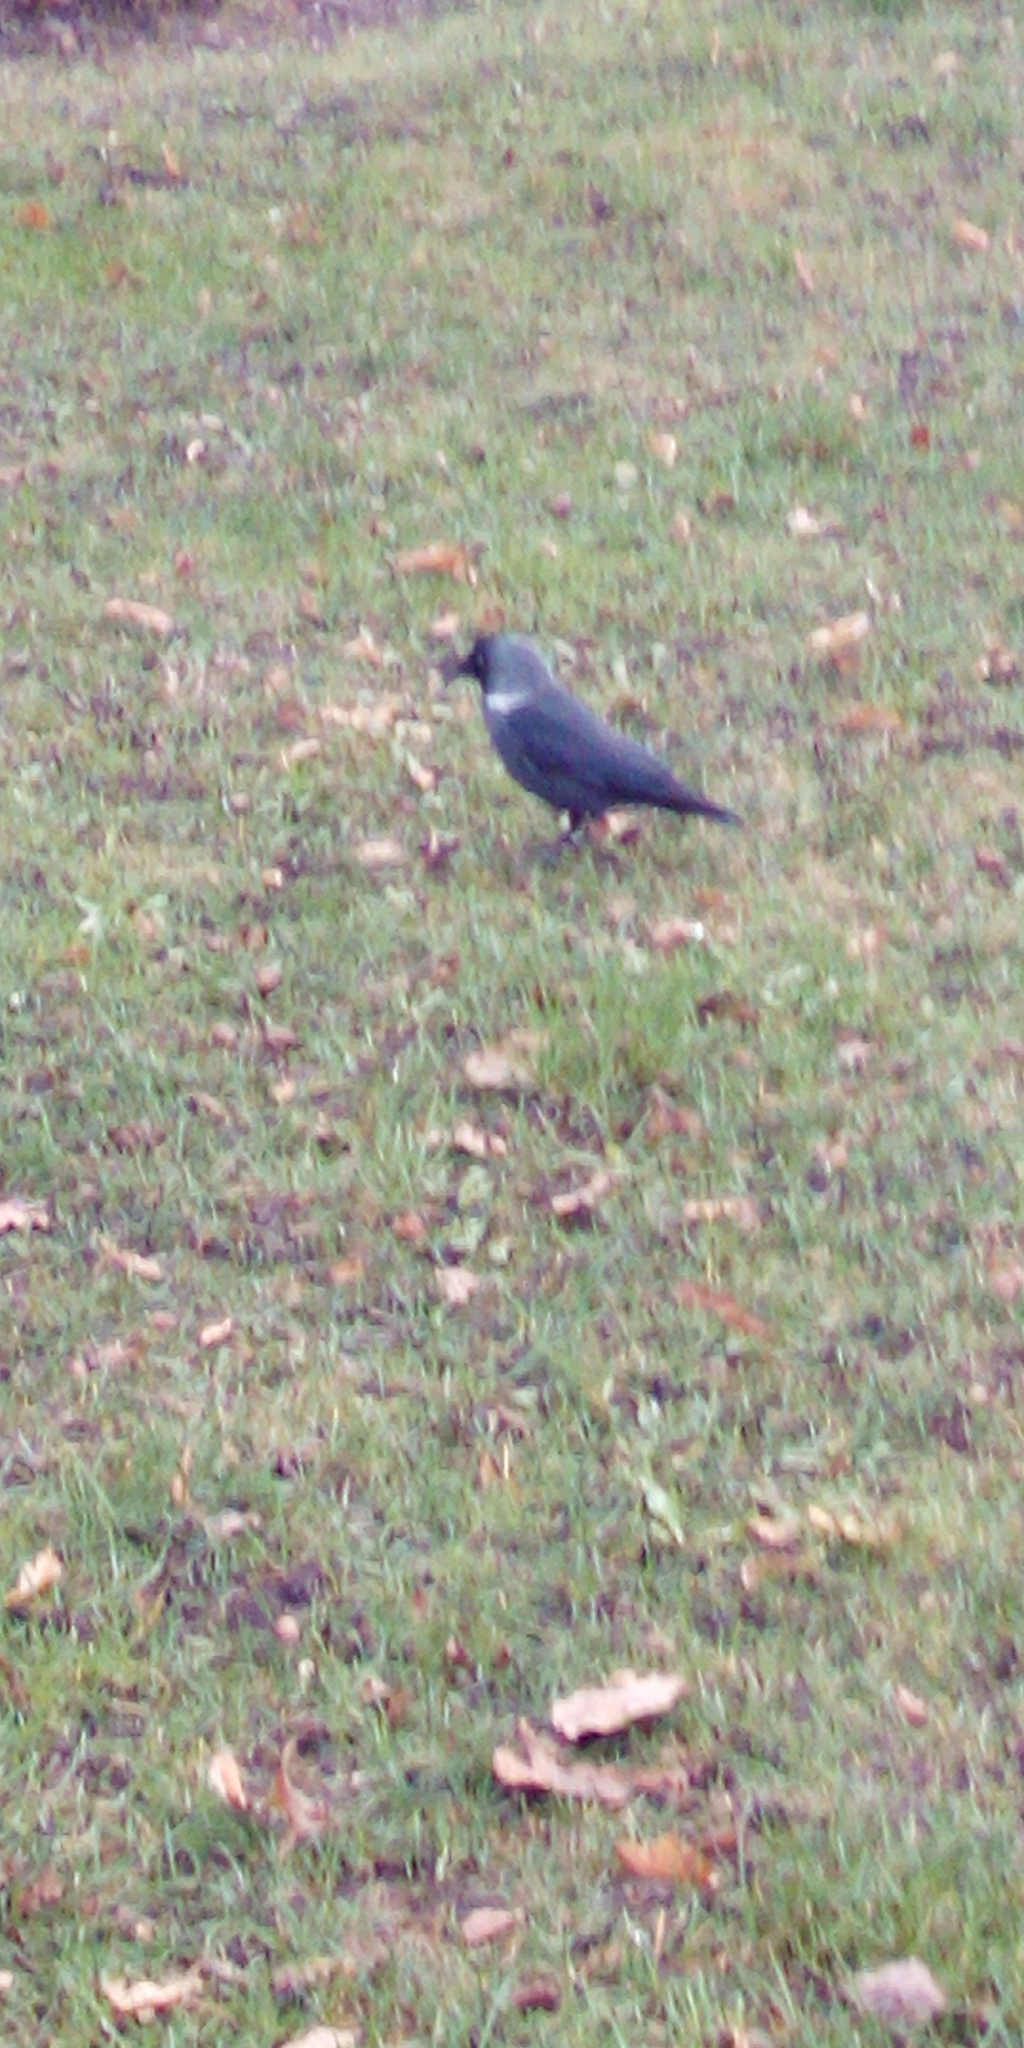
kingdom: Animalia
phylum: Chordata
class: Aves
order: Passeriformes
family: Corvidae
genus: Coloeus
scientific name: Coloeus monedula
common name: Western jackdaw
